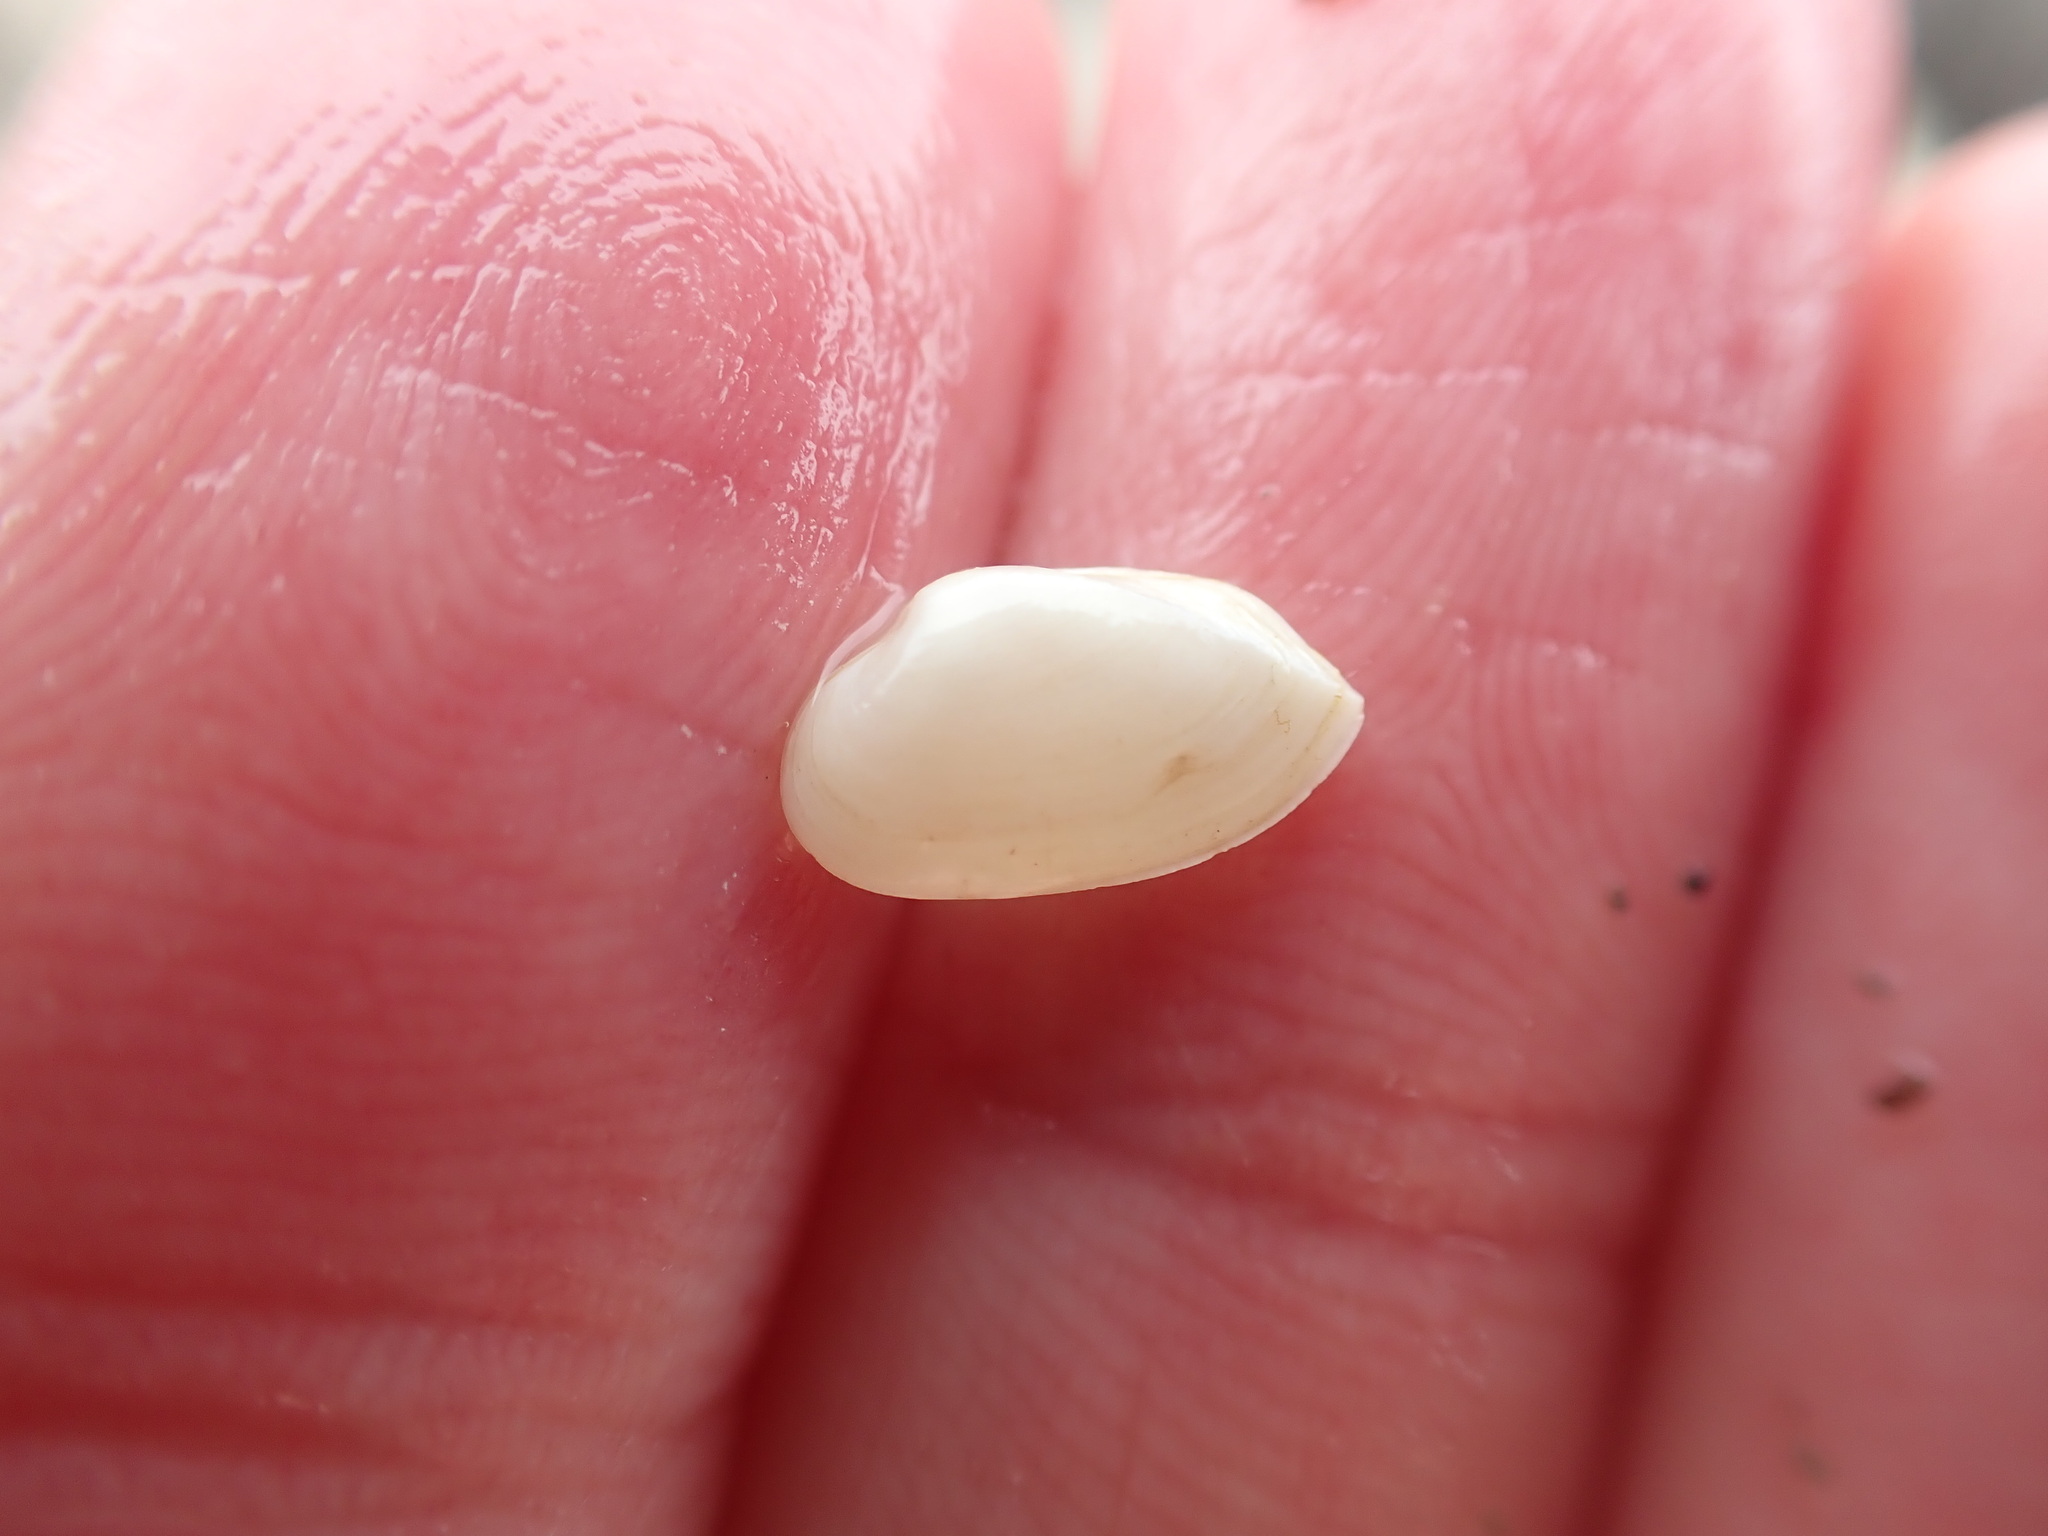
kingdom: Animalia
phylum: Mollusca
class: Bivalvia
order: Myida
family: Corbulidae
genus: Corbula
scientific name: Corbula zelandica
